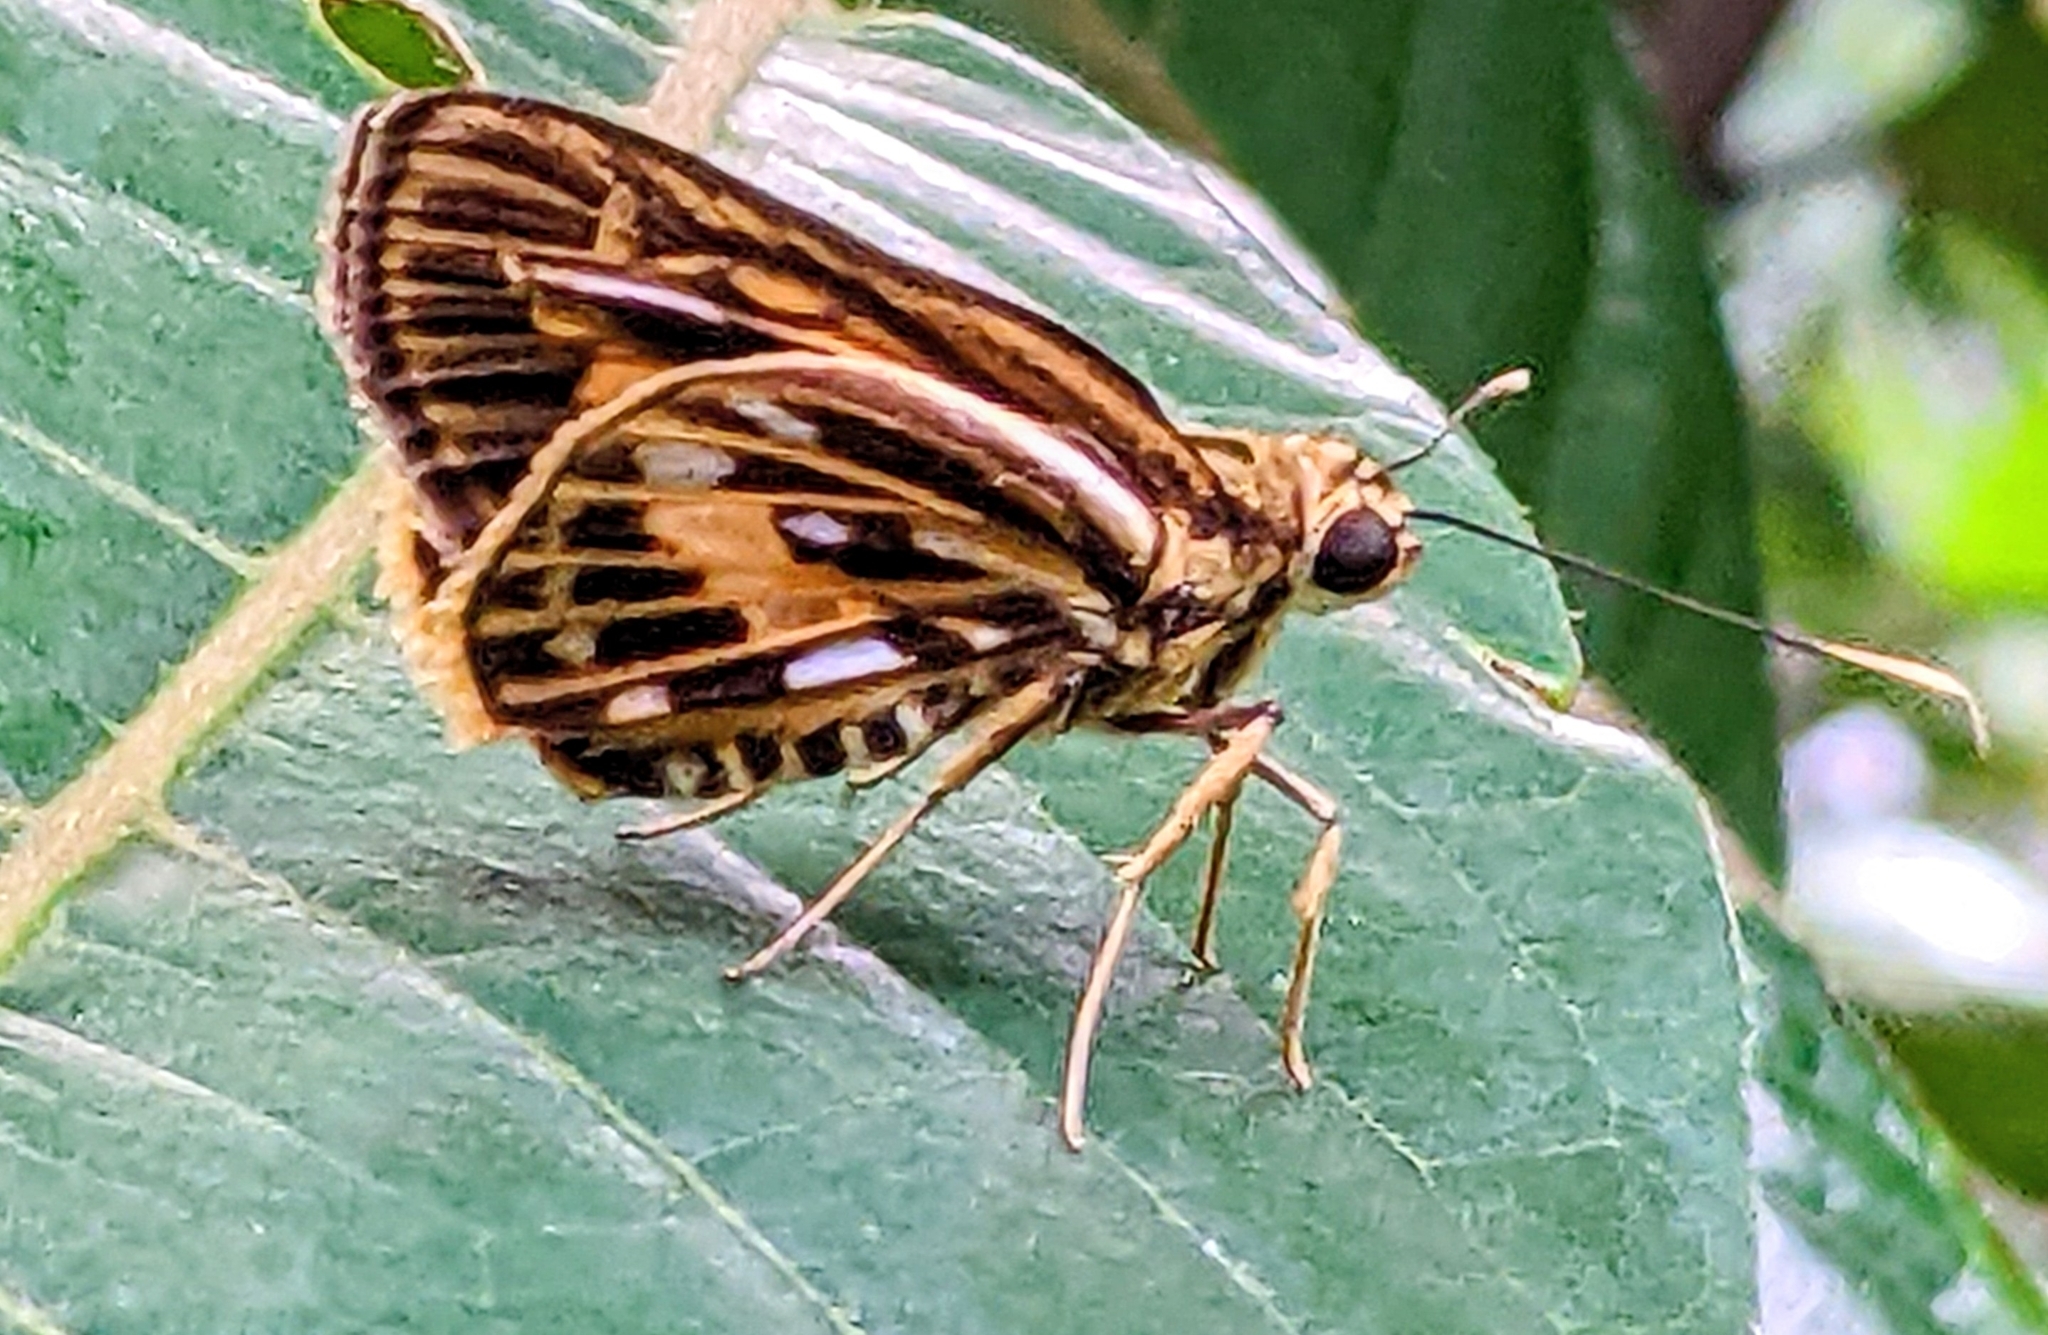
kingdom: Animalia
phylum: Arthropoda
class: Insecta
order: Lepidoptera
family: Hesperiidae
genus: Pyroneura
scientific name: Pyroneura latoia
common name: Yellow vein lancer
